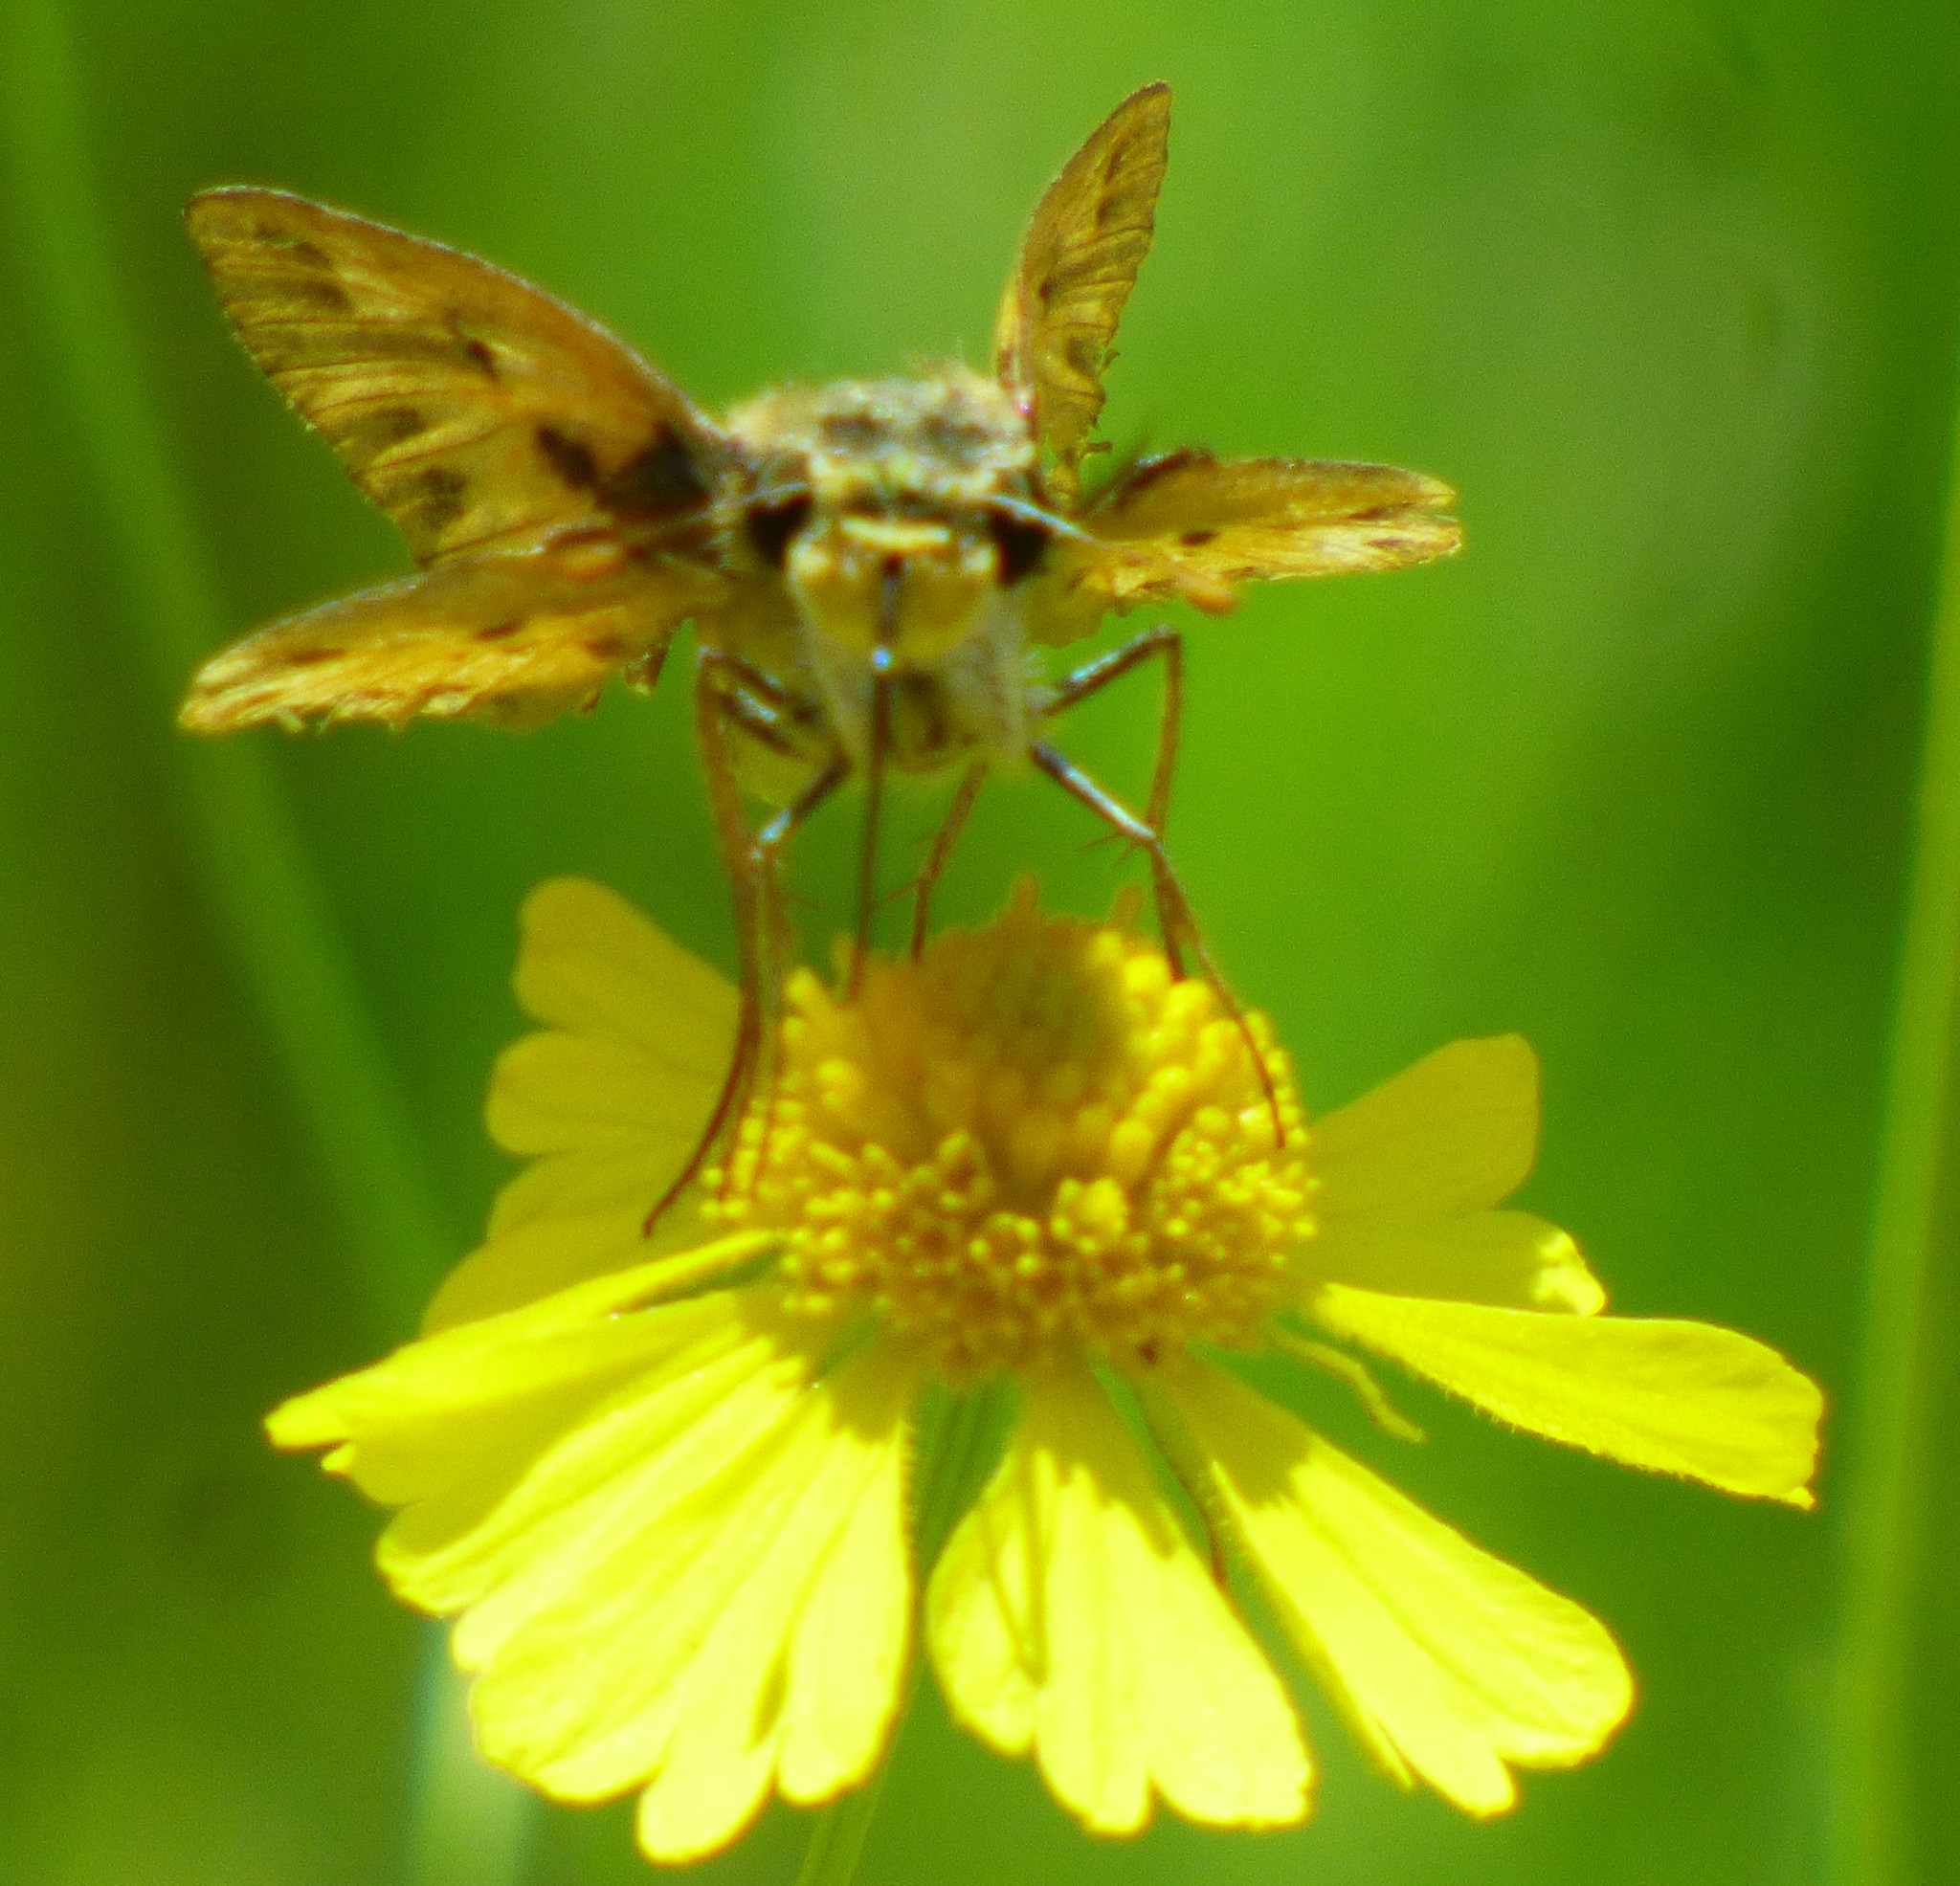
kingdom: Animalia
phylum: Arthropoda
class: Insecta
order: Lepidoptera
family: Hesperiidae
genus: Polites
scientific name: Polites vibex
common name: Whirlabout
